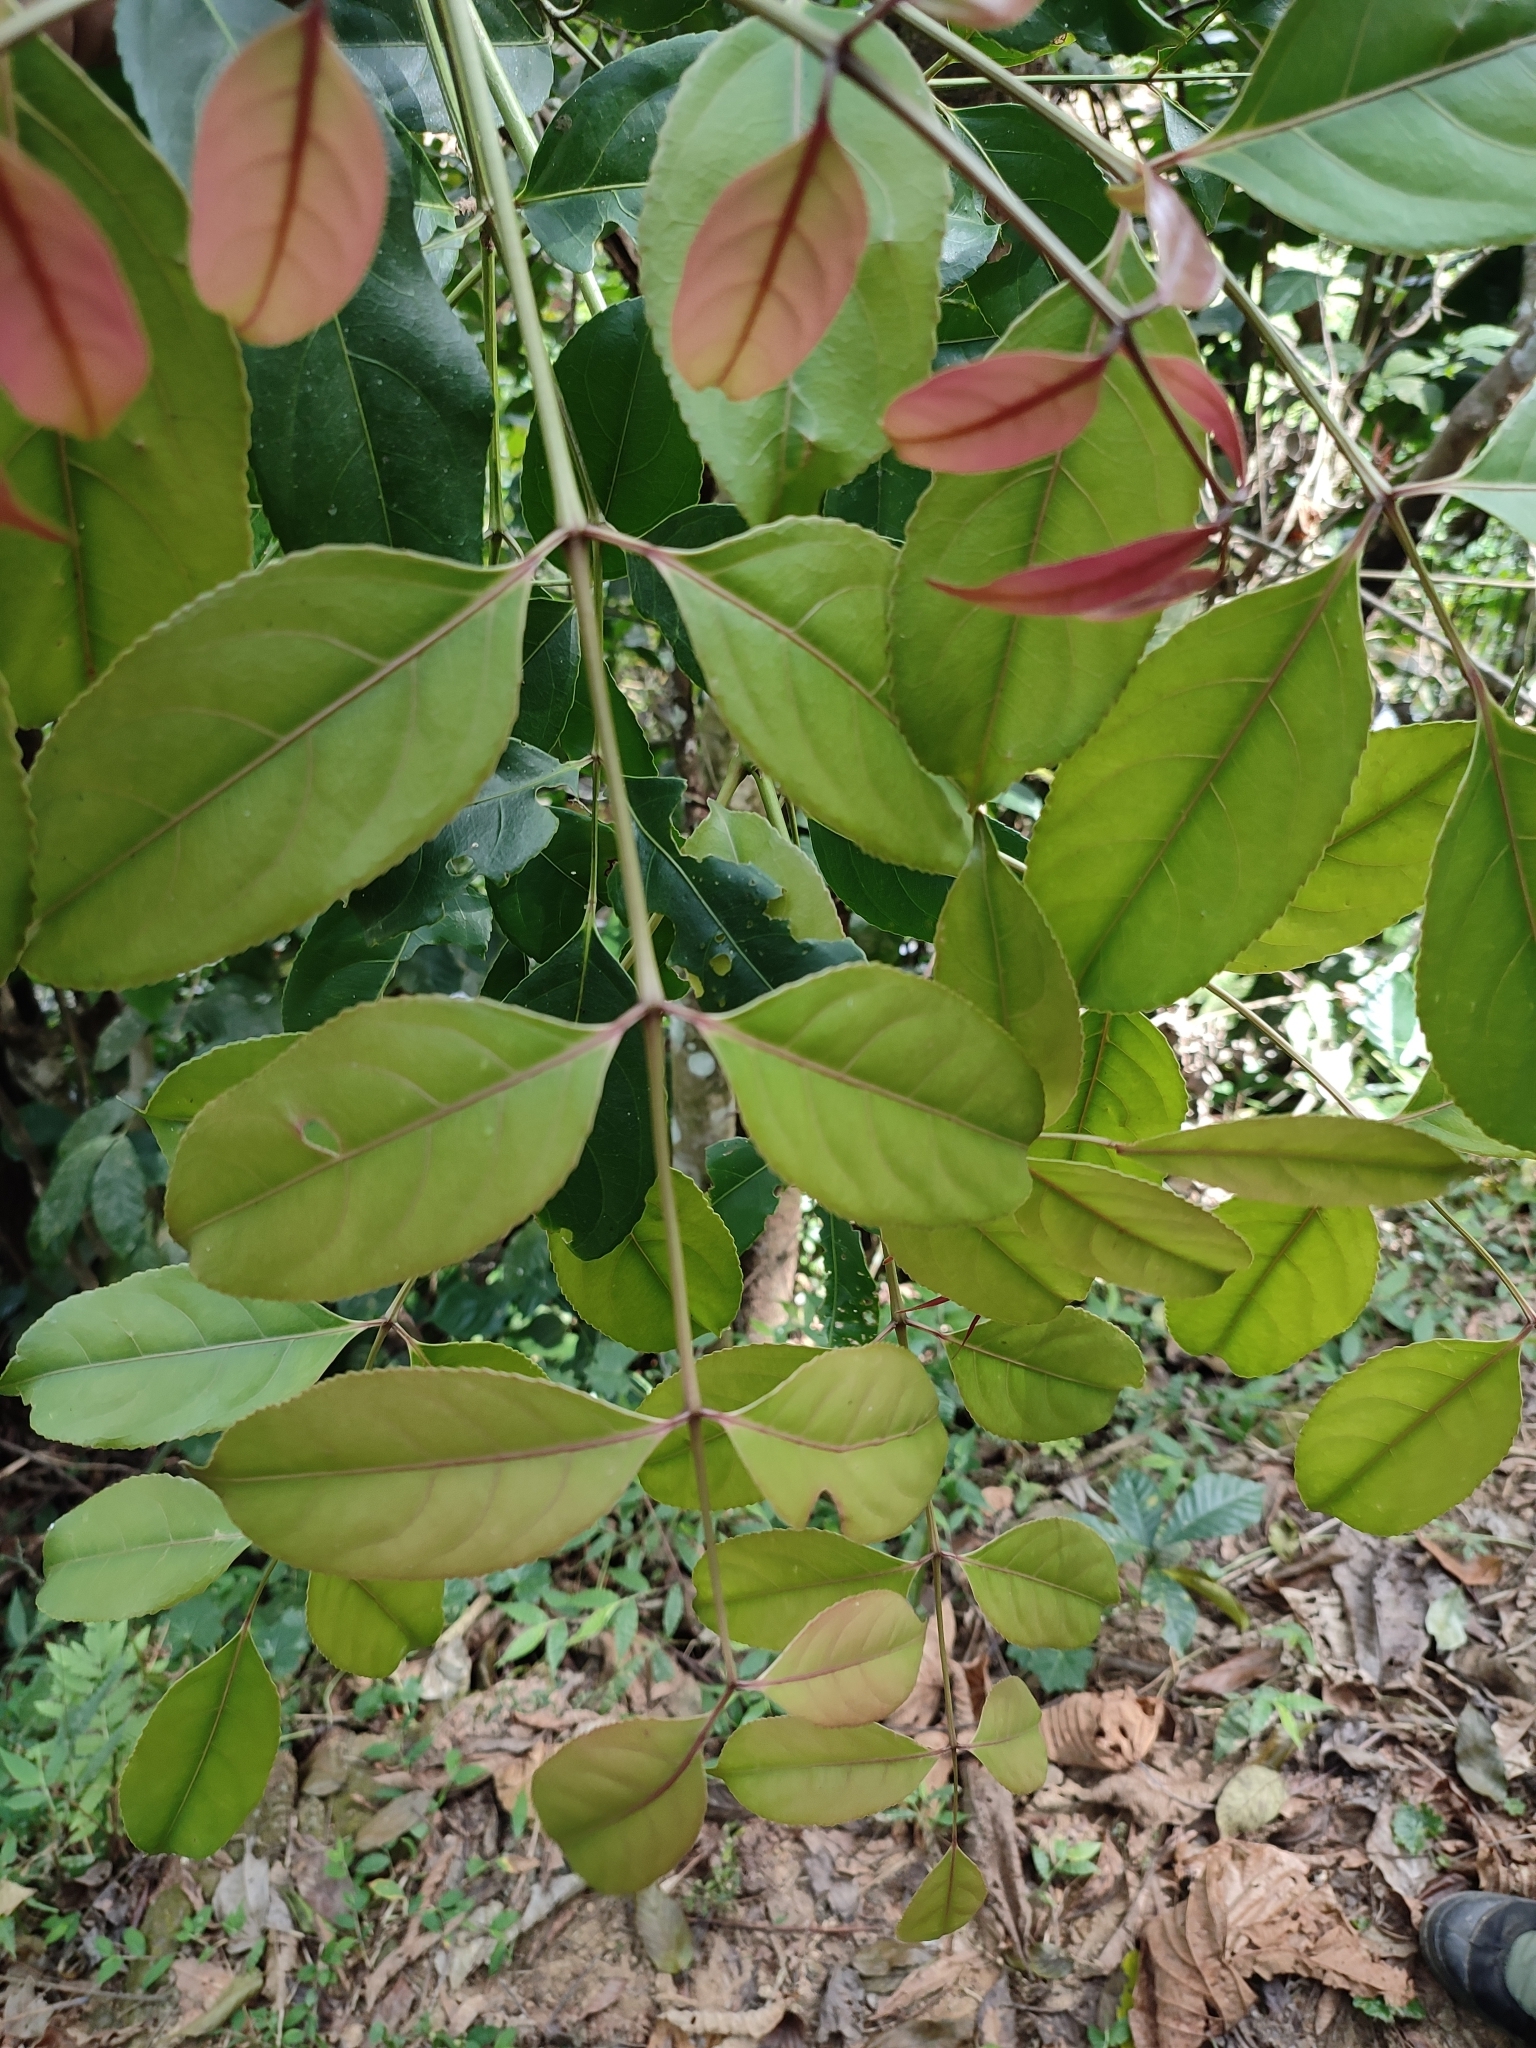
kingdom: Plantae
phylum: Tracheophyta
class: Magnoliopsida
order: Crossosomatales
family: Staphyleaceae
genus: Staphylea
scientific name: Staphylea
